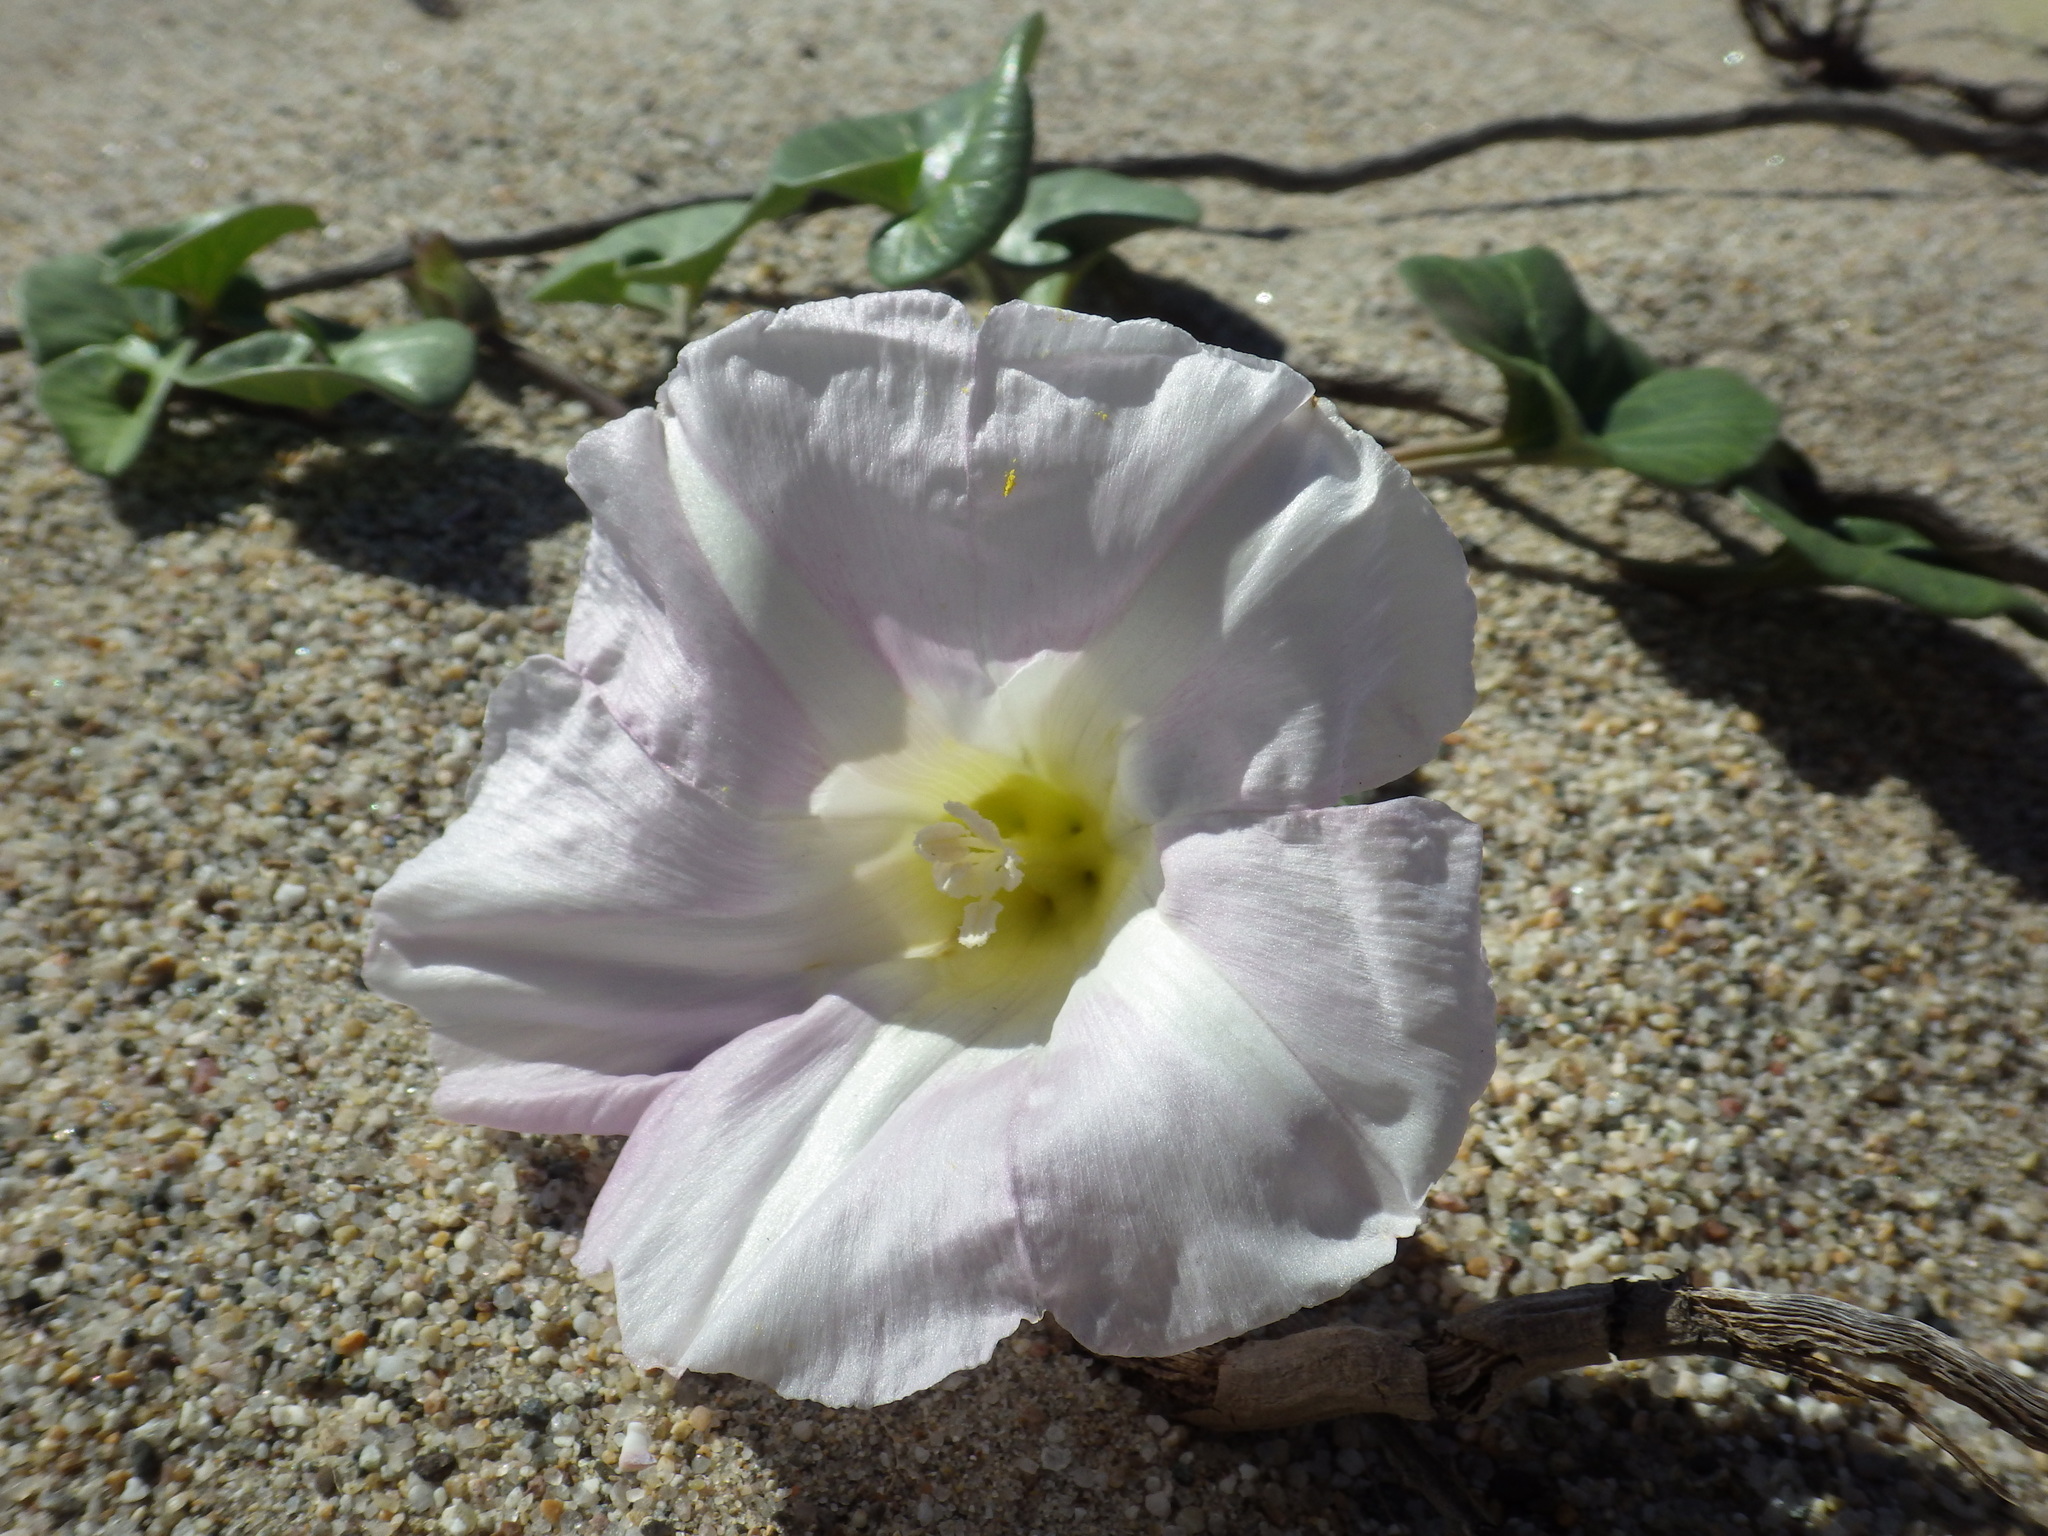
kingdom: Plantae
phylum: Tracheophyta
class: Magnoliopsida
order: Solanales
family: Convolvulaceae
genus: Calystegia
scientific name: Calystegia soldanella
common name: Sea bindweed
